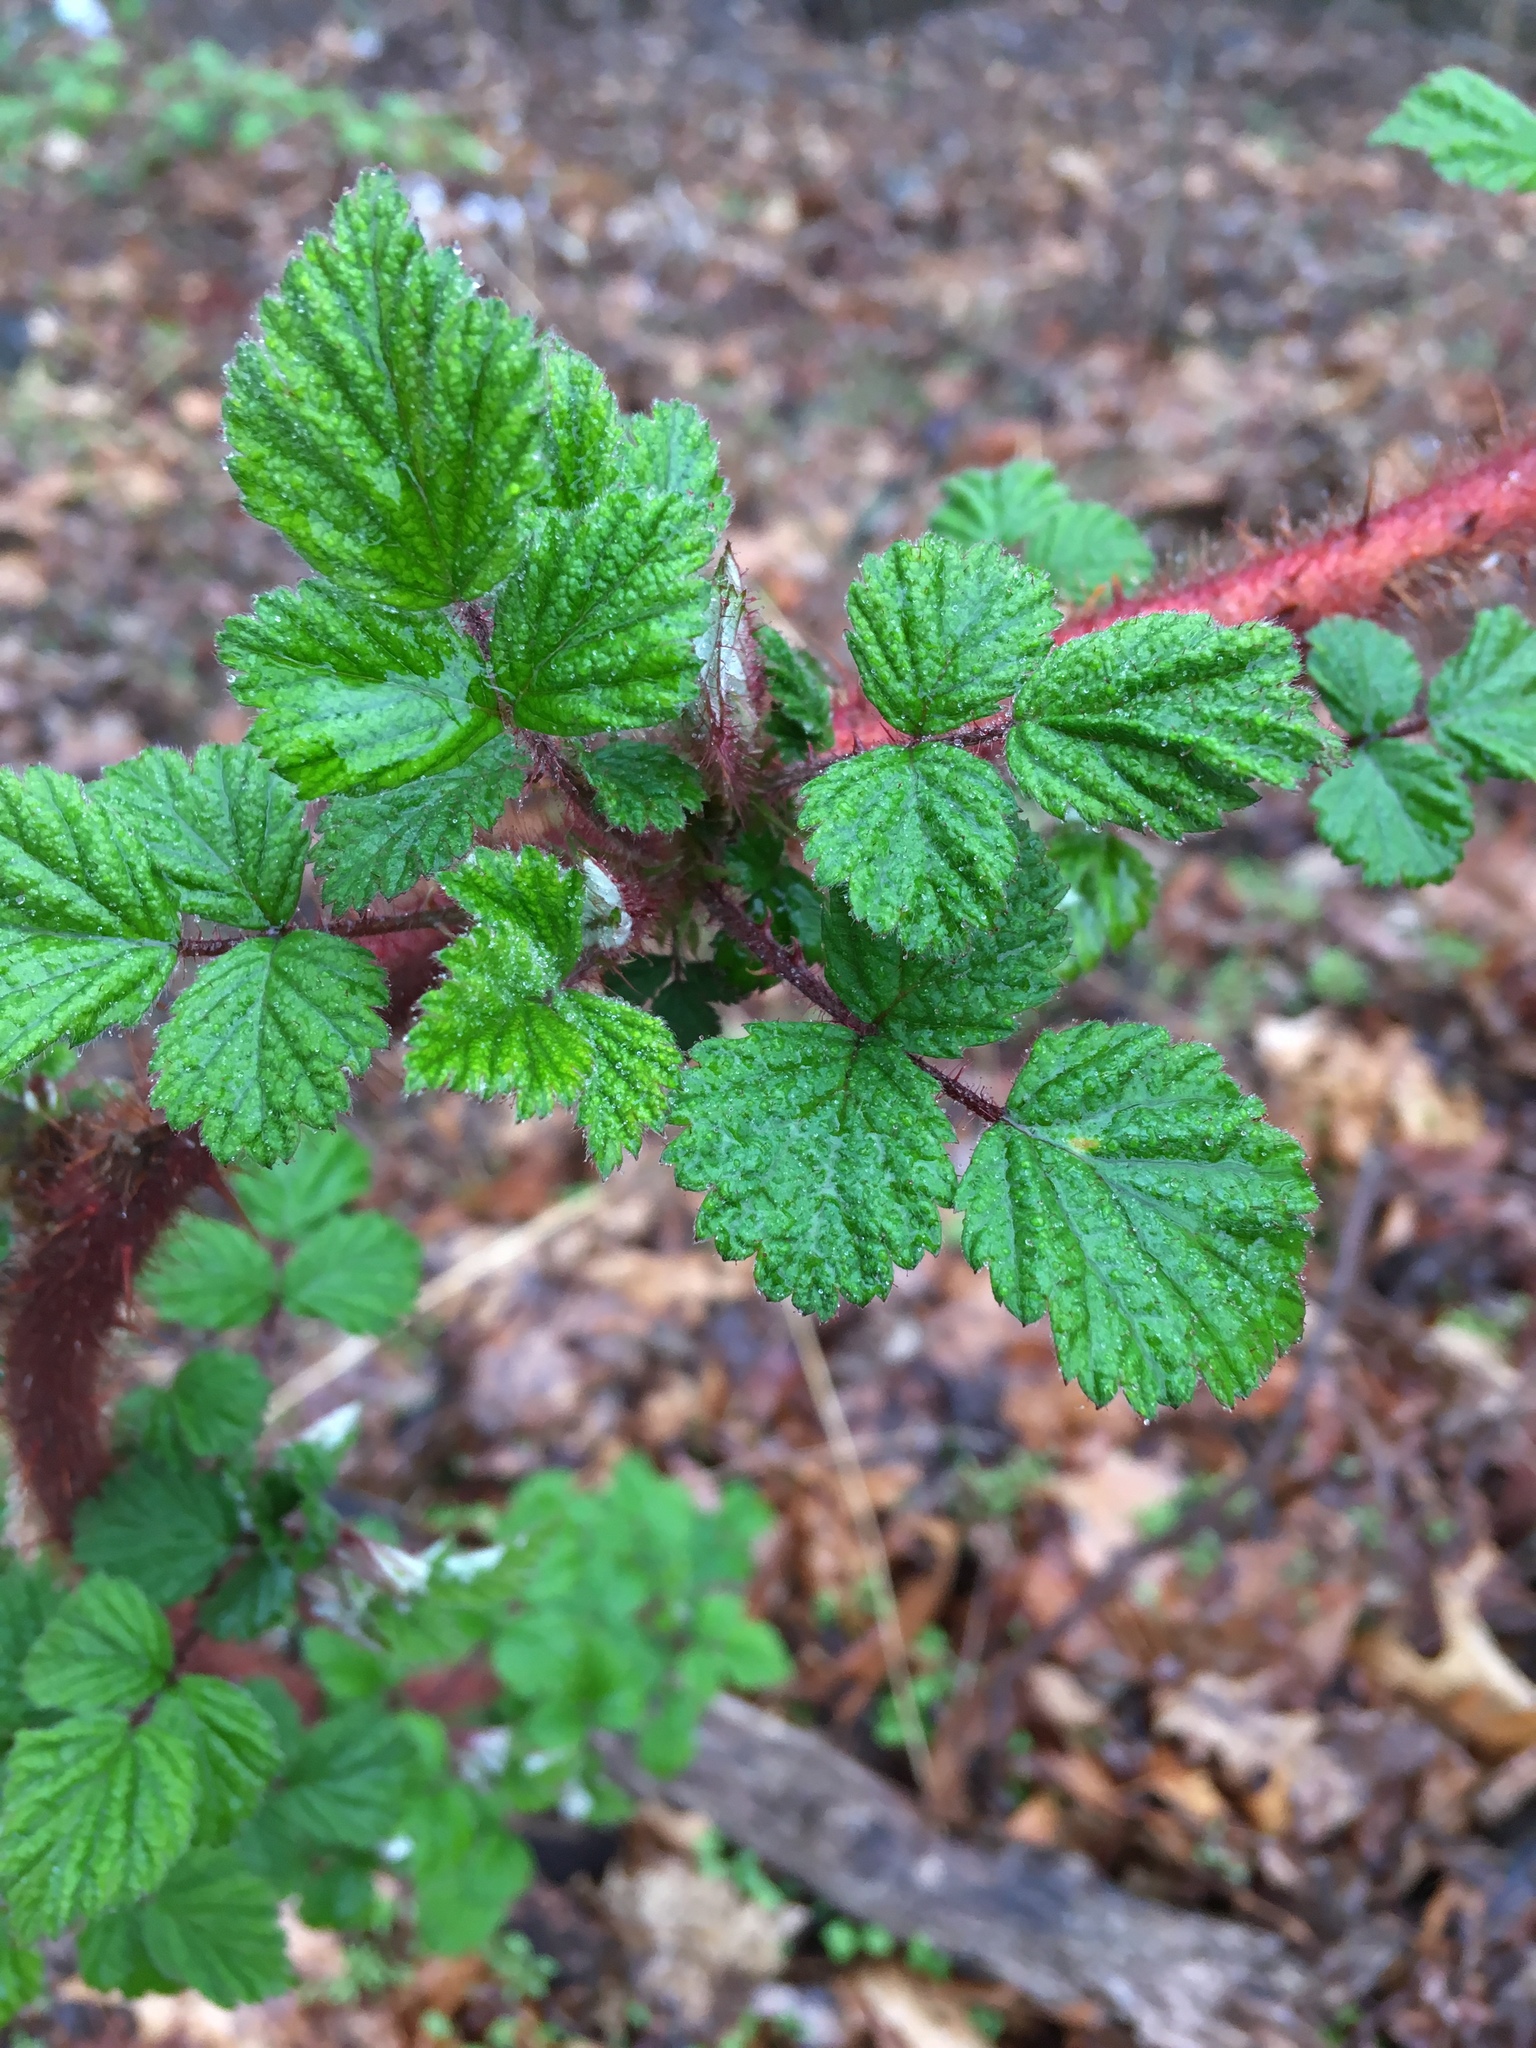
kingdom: Plantae
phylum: Tracheophyta
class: Magnoliopsida
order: Rosales
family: Rosaceae
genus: Rubus
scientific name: Rubus phoenicolasius
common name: Japanese wineberry
